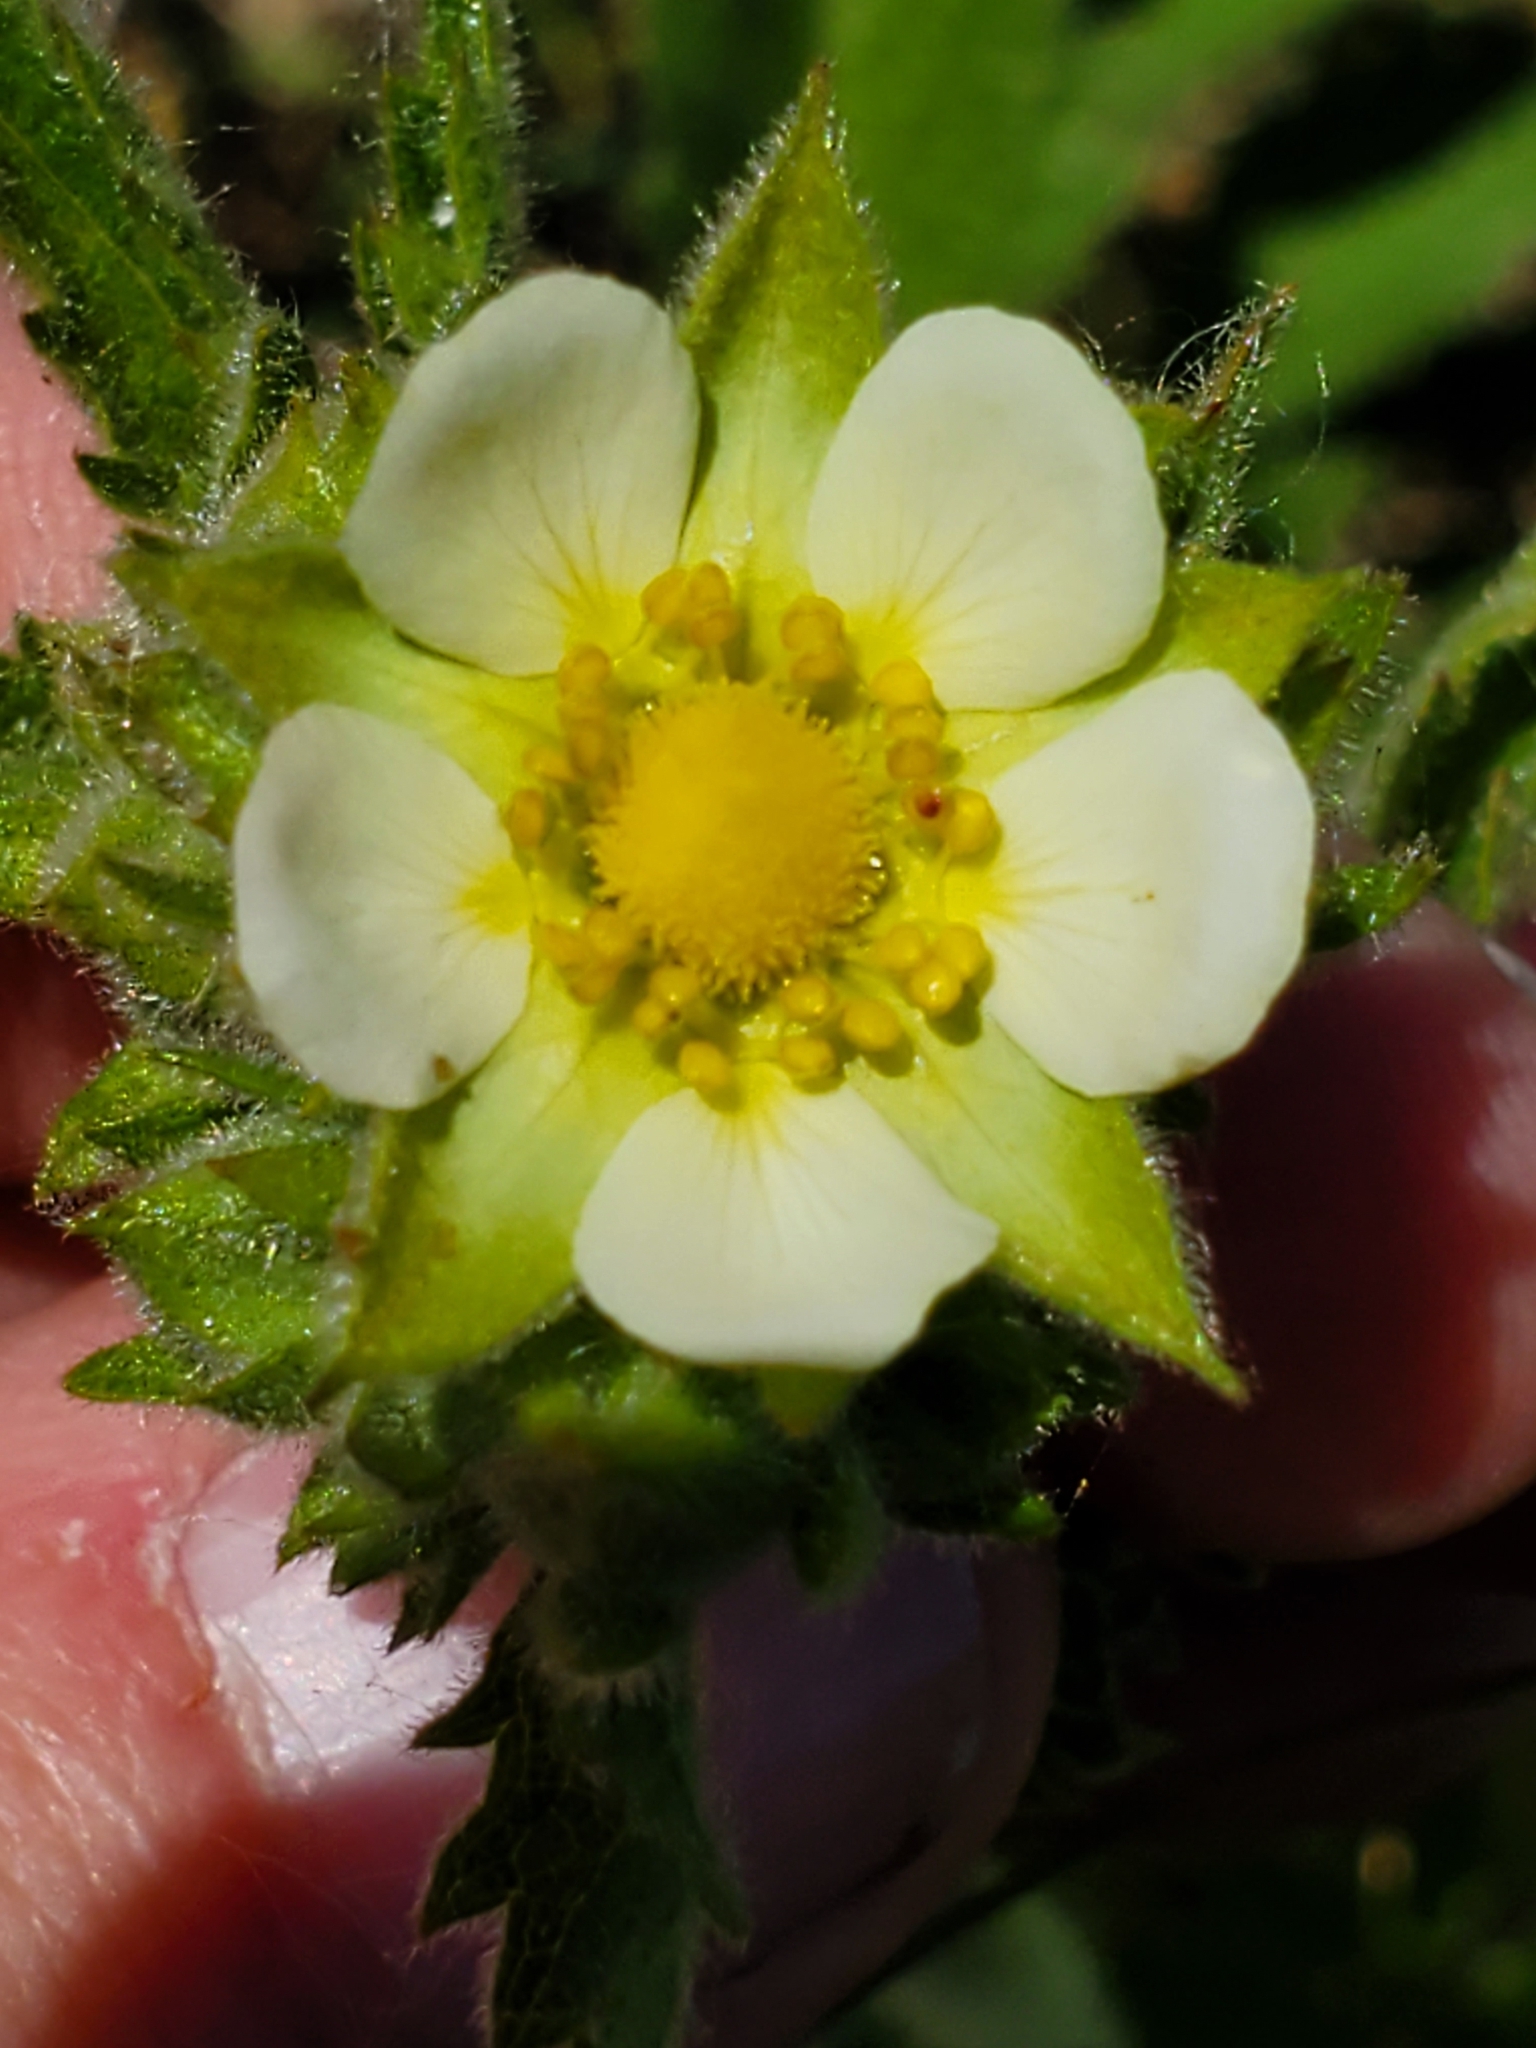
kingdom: Plantae
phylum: Tracheophyta
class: Magnoliopsida
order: Rosales
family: Rosaceae
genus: Drymocallis
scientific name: Drymocallis arguta
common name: Tall cinquefoil
